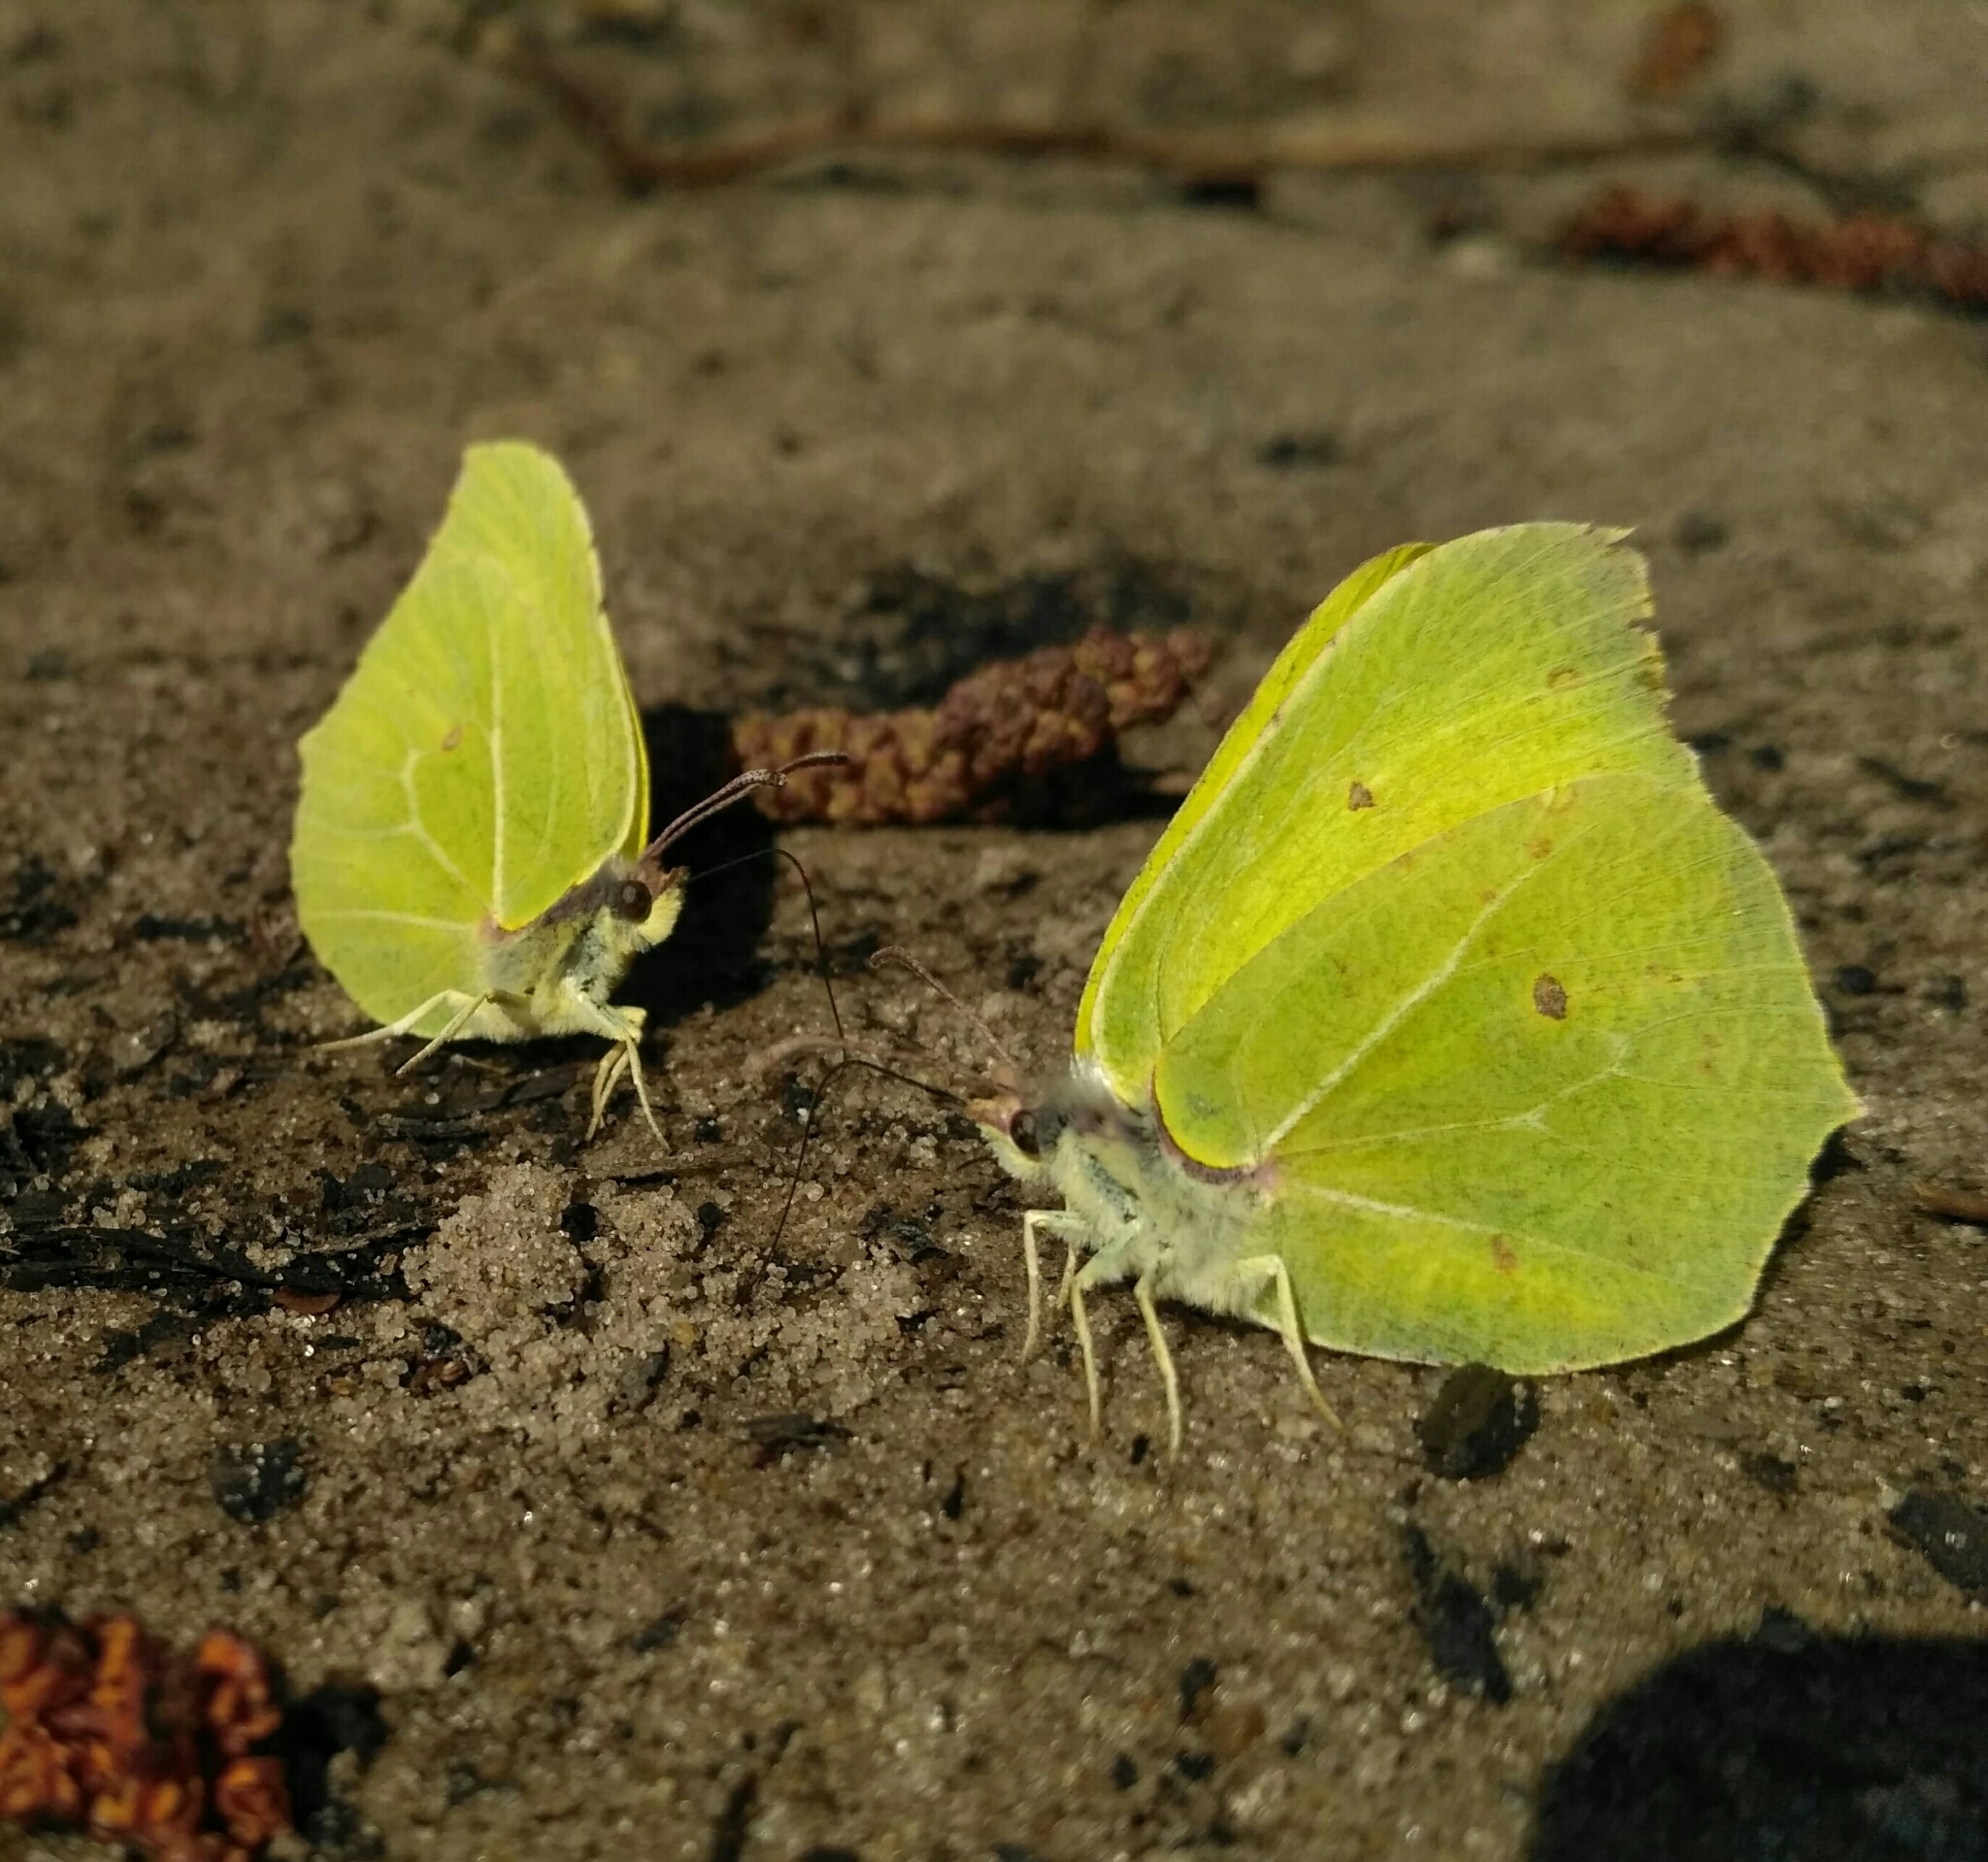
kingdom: Animalia
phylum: Arthropoda
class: Insecta
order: Lepidoptera
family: Pieridae
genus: Gonepteryx
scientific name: Gonepteryx rhamni
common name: Brimstone
